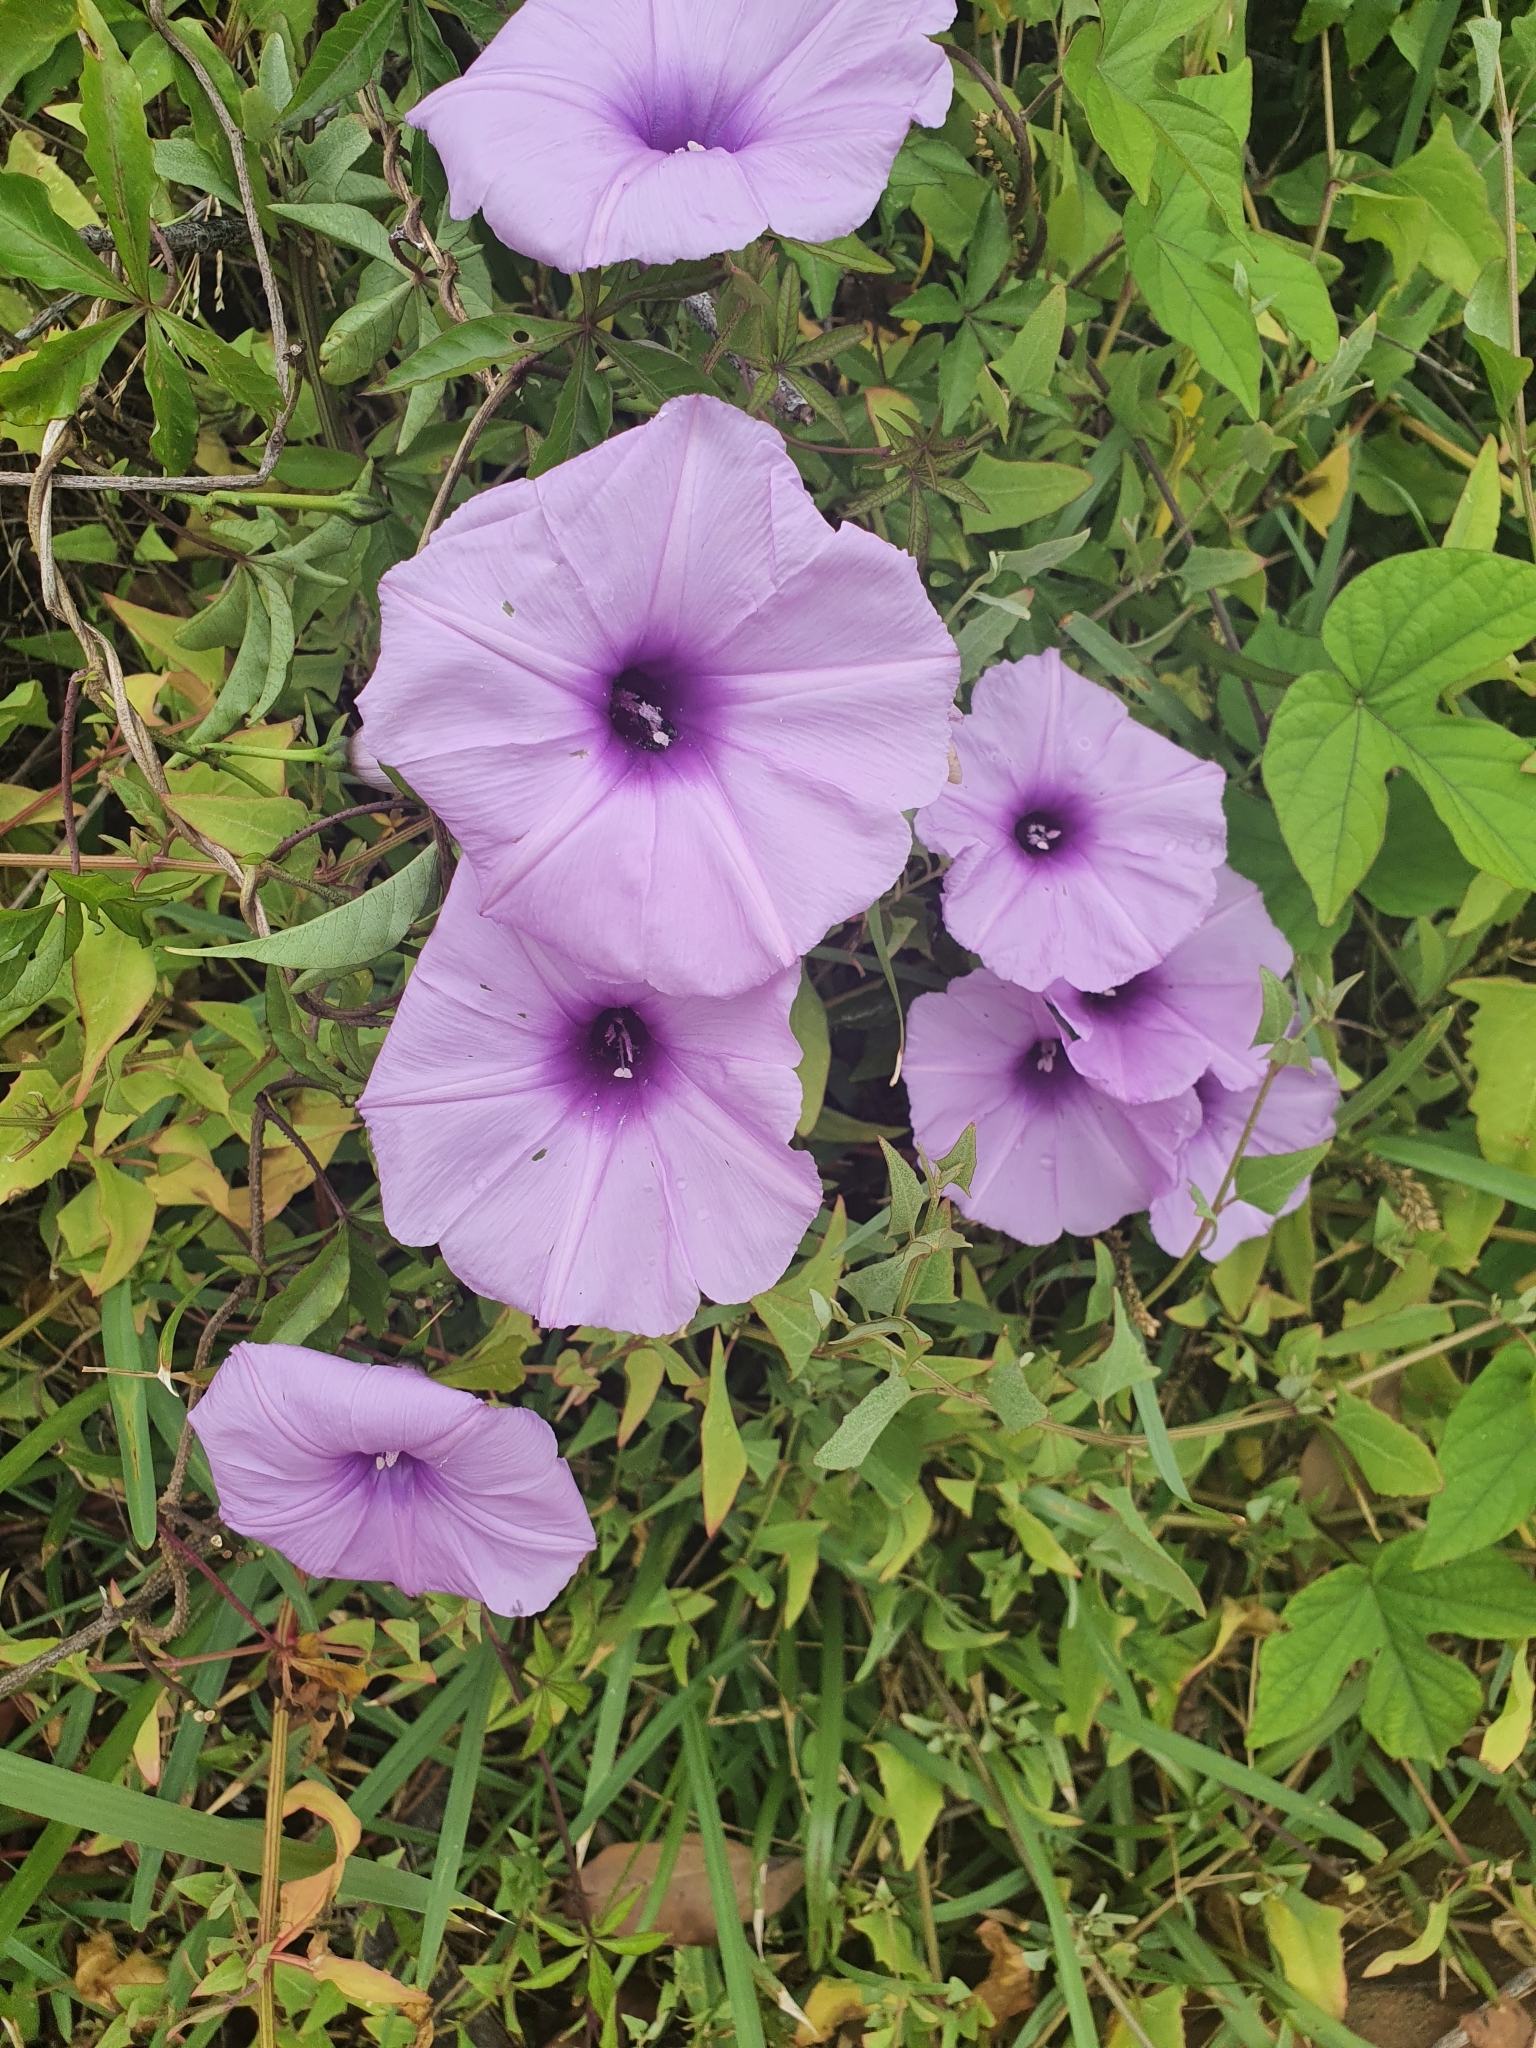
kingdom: Plantae
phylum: Tracheophyta
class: Magnoliopsida
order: Solanales
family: Convolvulaceae
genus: Ipomoea
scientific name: Ipomoea cairica
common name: Mile a minute vine
